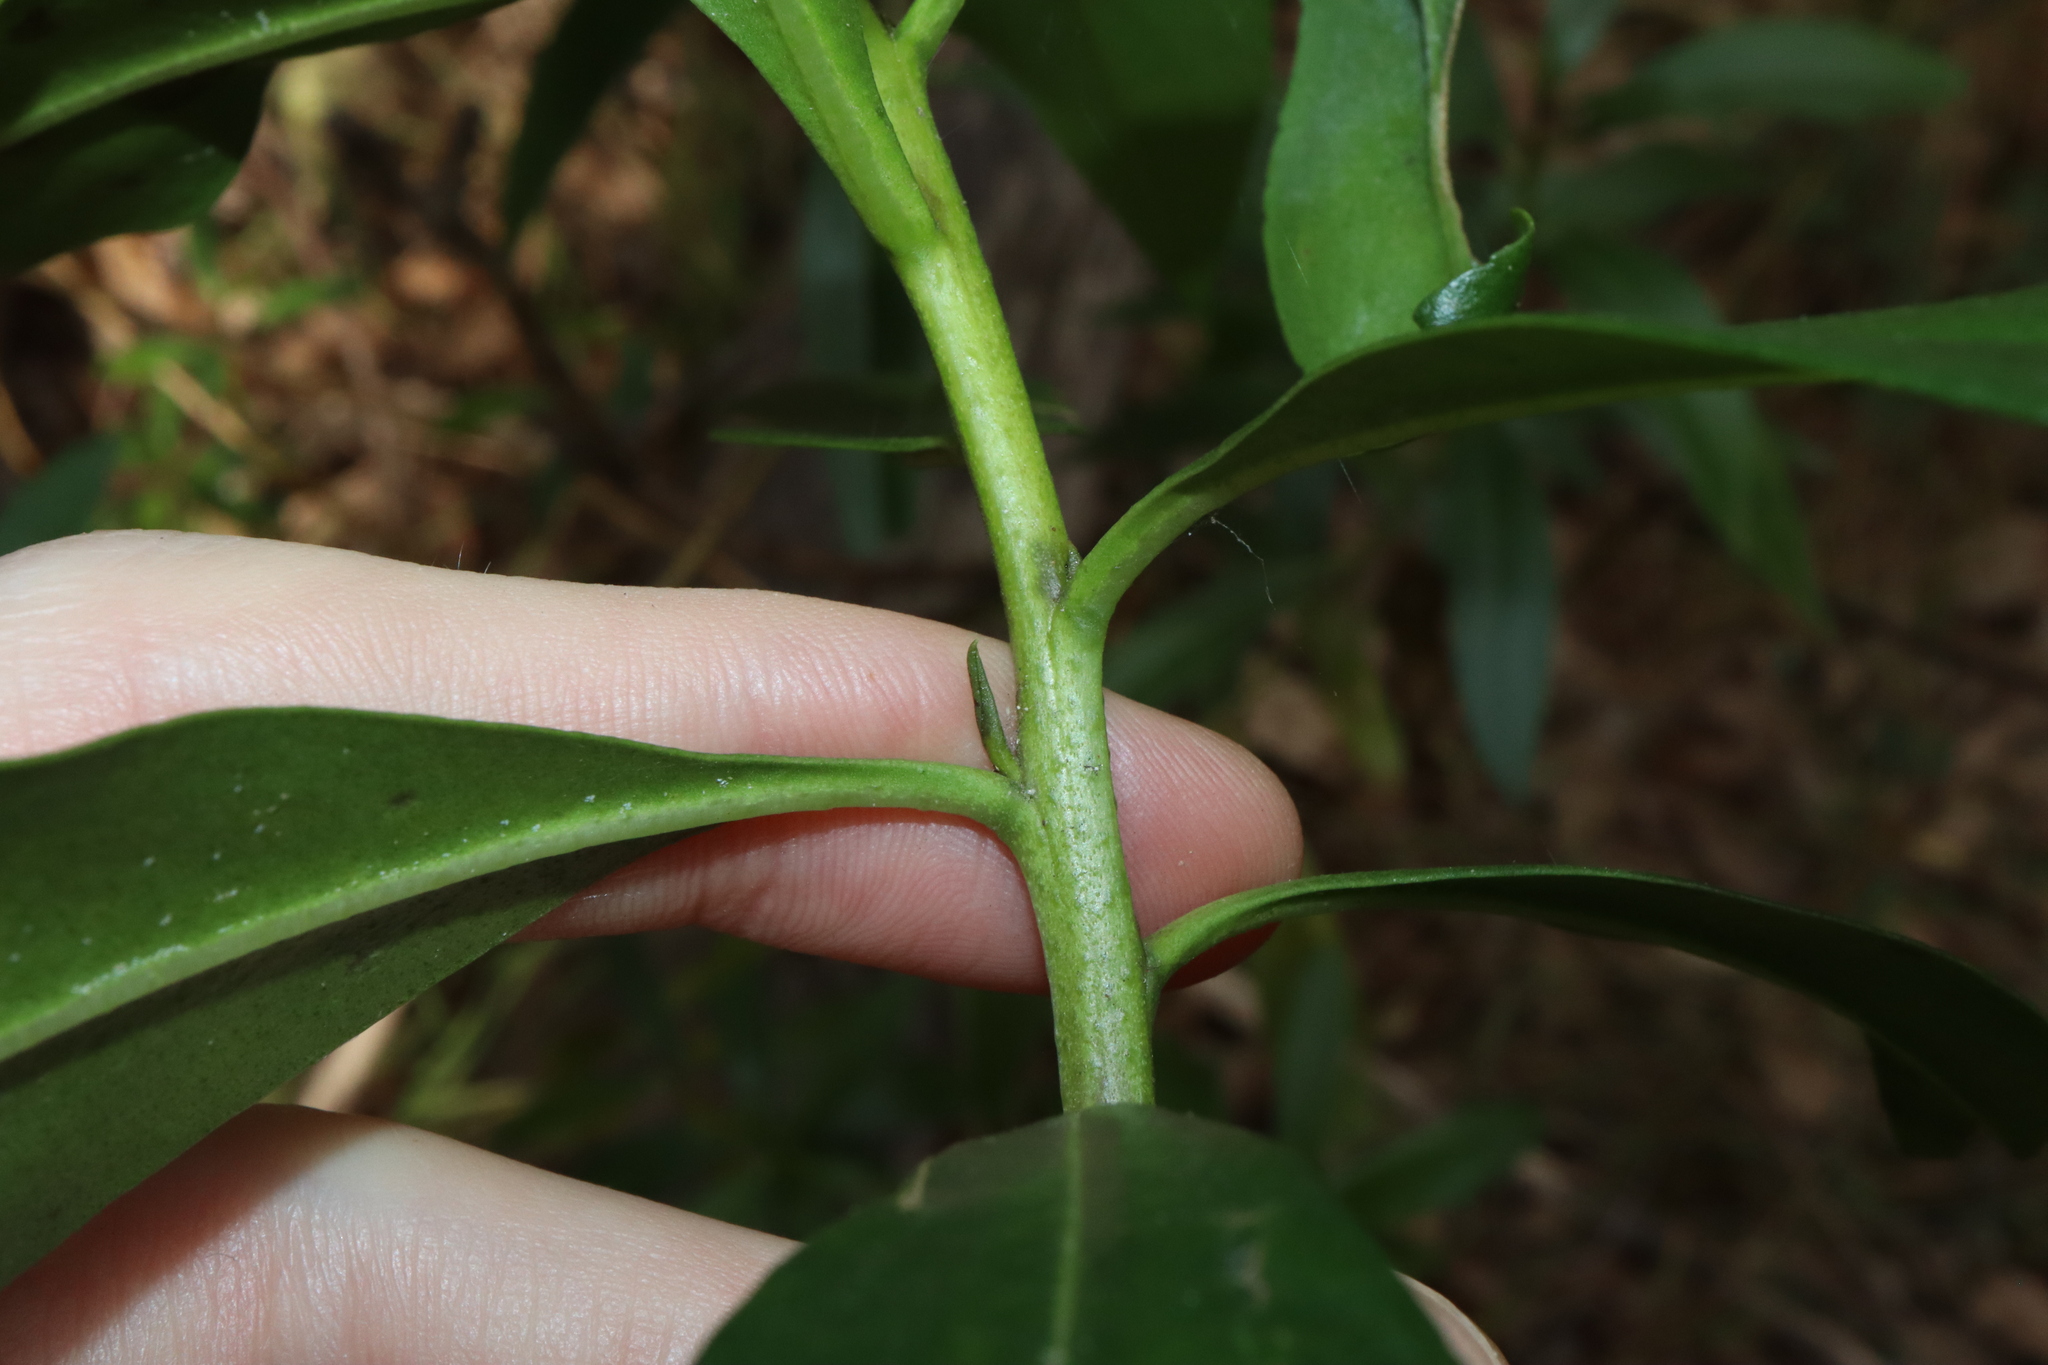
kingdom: Plantae
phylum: Tracheophyta
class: Magnoliopsida
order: Lamiales
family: Scrophulariaceae
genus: Myoporum
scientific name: Myoporum acuminatum
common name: Pointed boobialla
